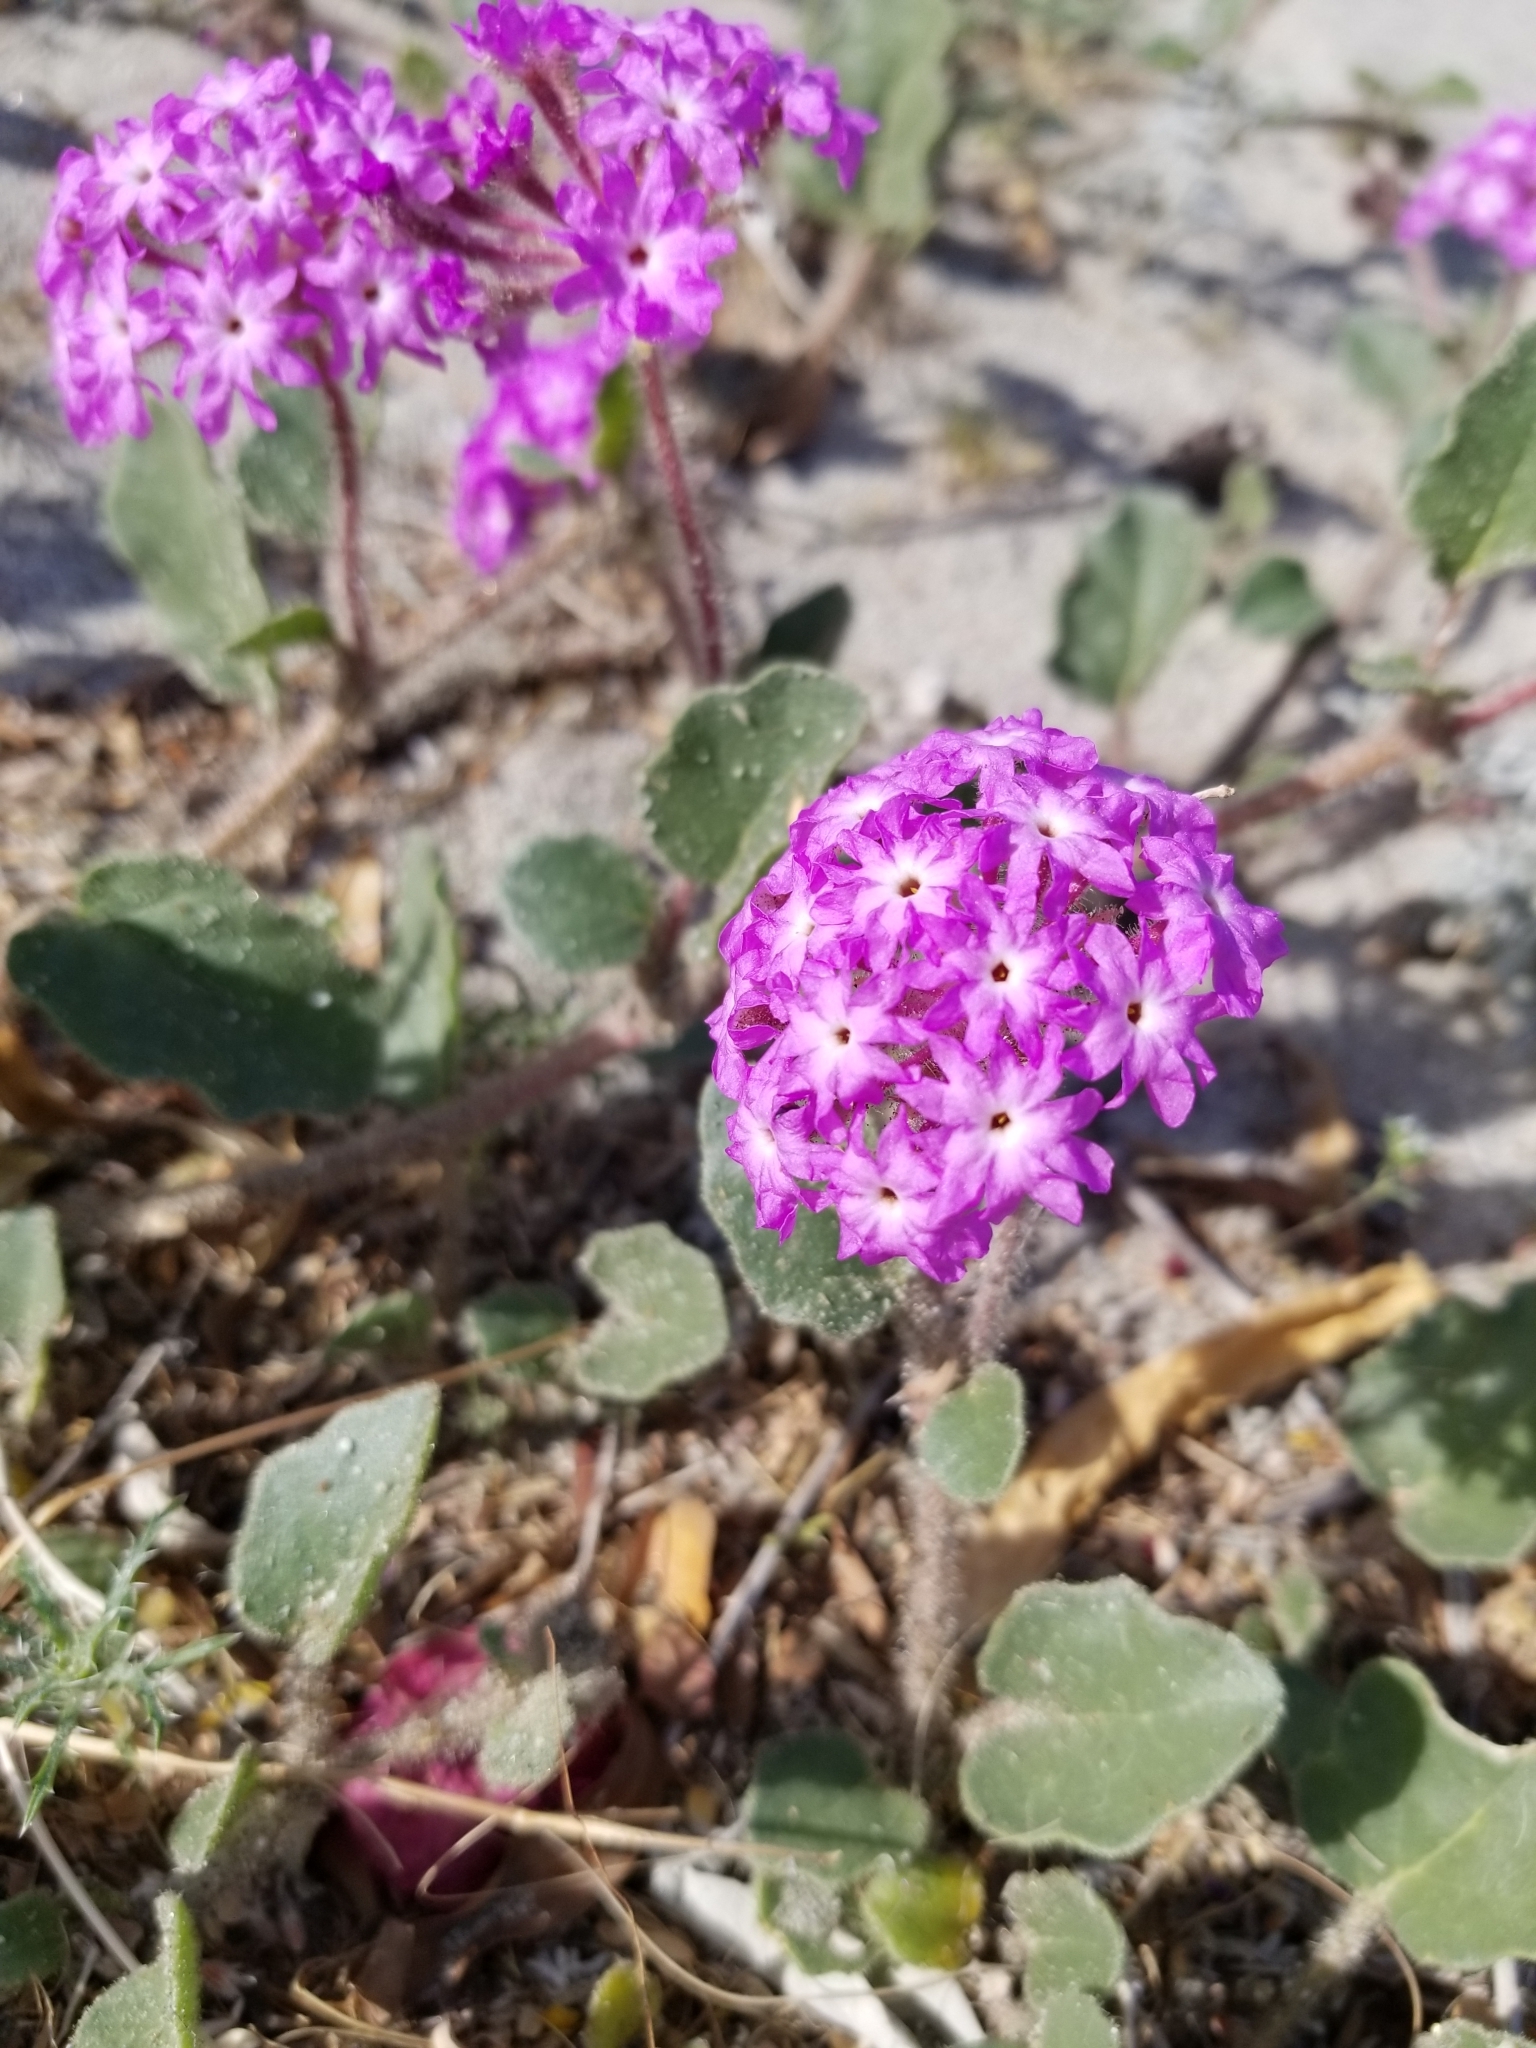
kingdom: Plantae
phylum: Tracheophyta
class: Magnoliopsida
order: Caryophyllales
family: Nyctaginaceae
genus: Abronia
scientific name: Abronia villosa
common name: Desert sand-verbena
